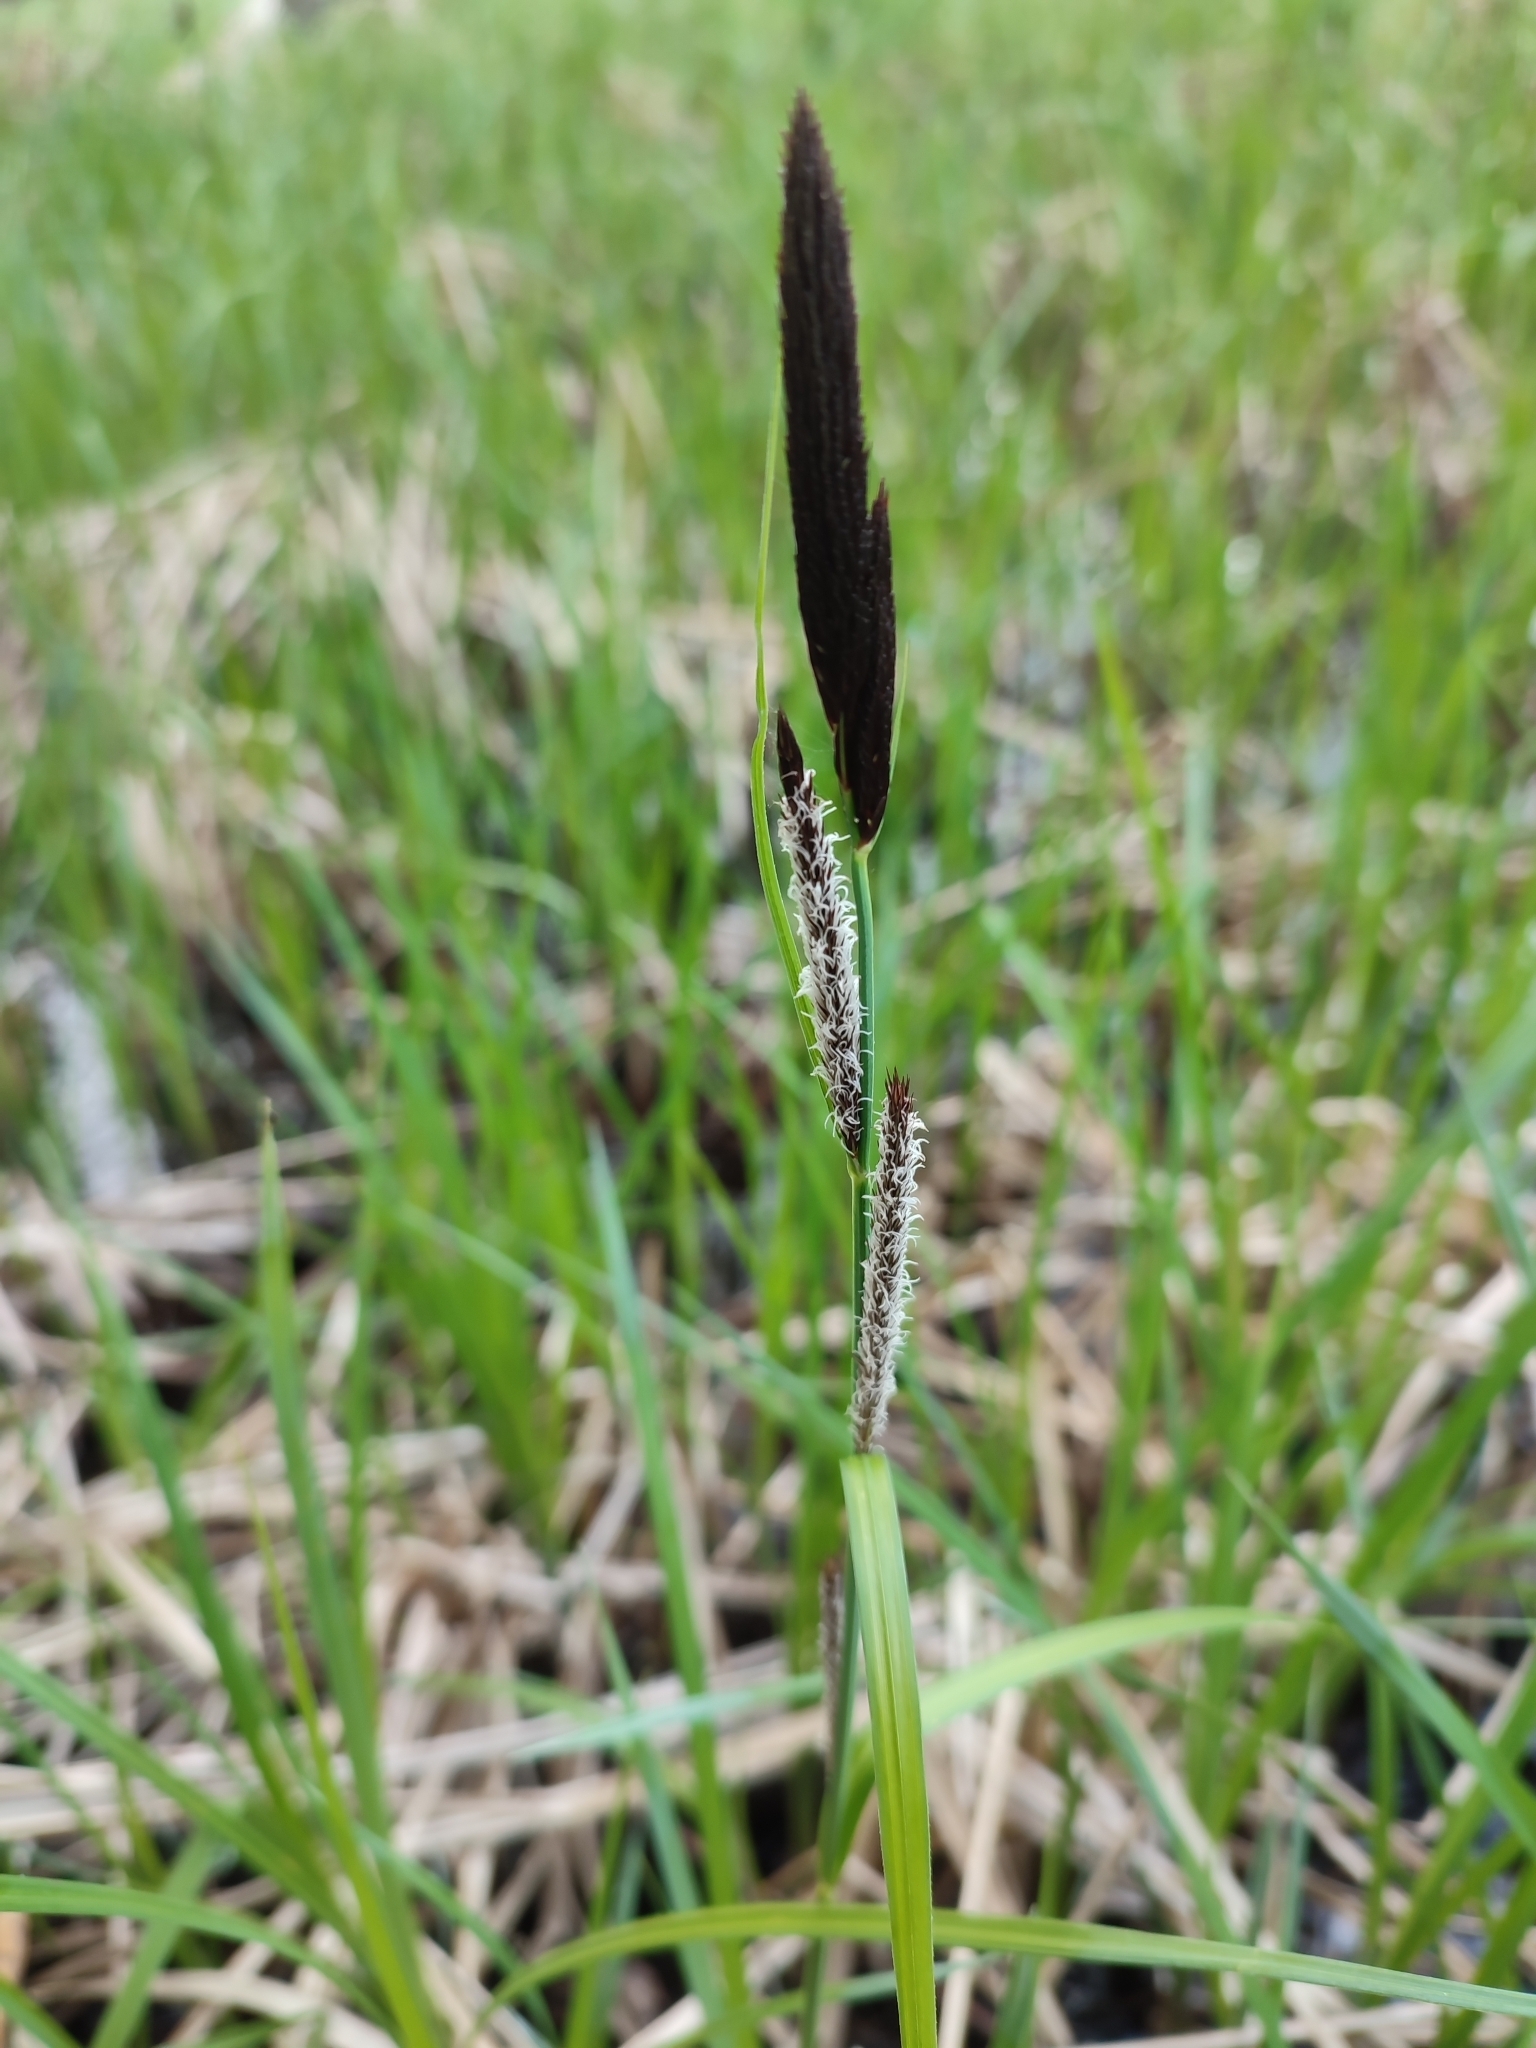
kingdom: Plantae
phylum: Tracheophyta
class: Liliopsida
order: Poales
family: Cyperaceae
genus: Carex
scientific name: Carex nigra
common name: Common sedge
